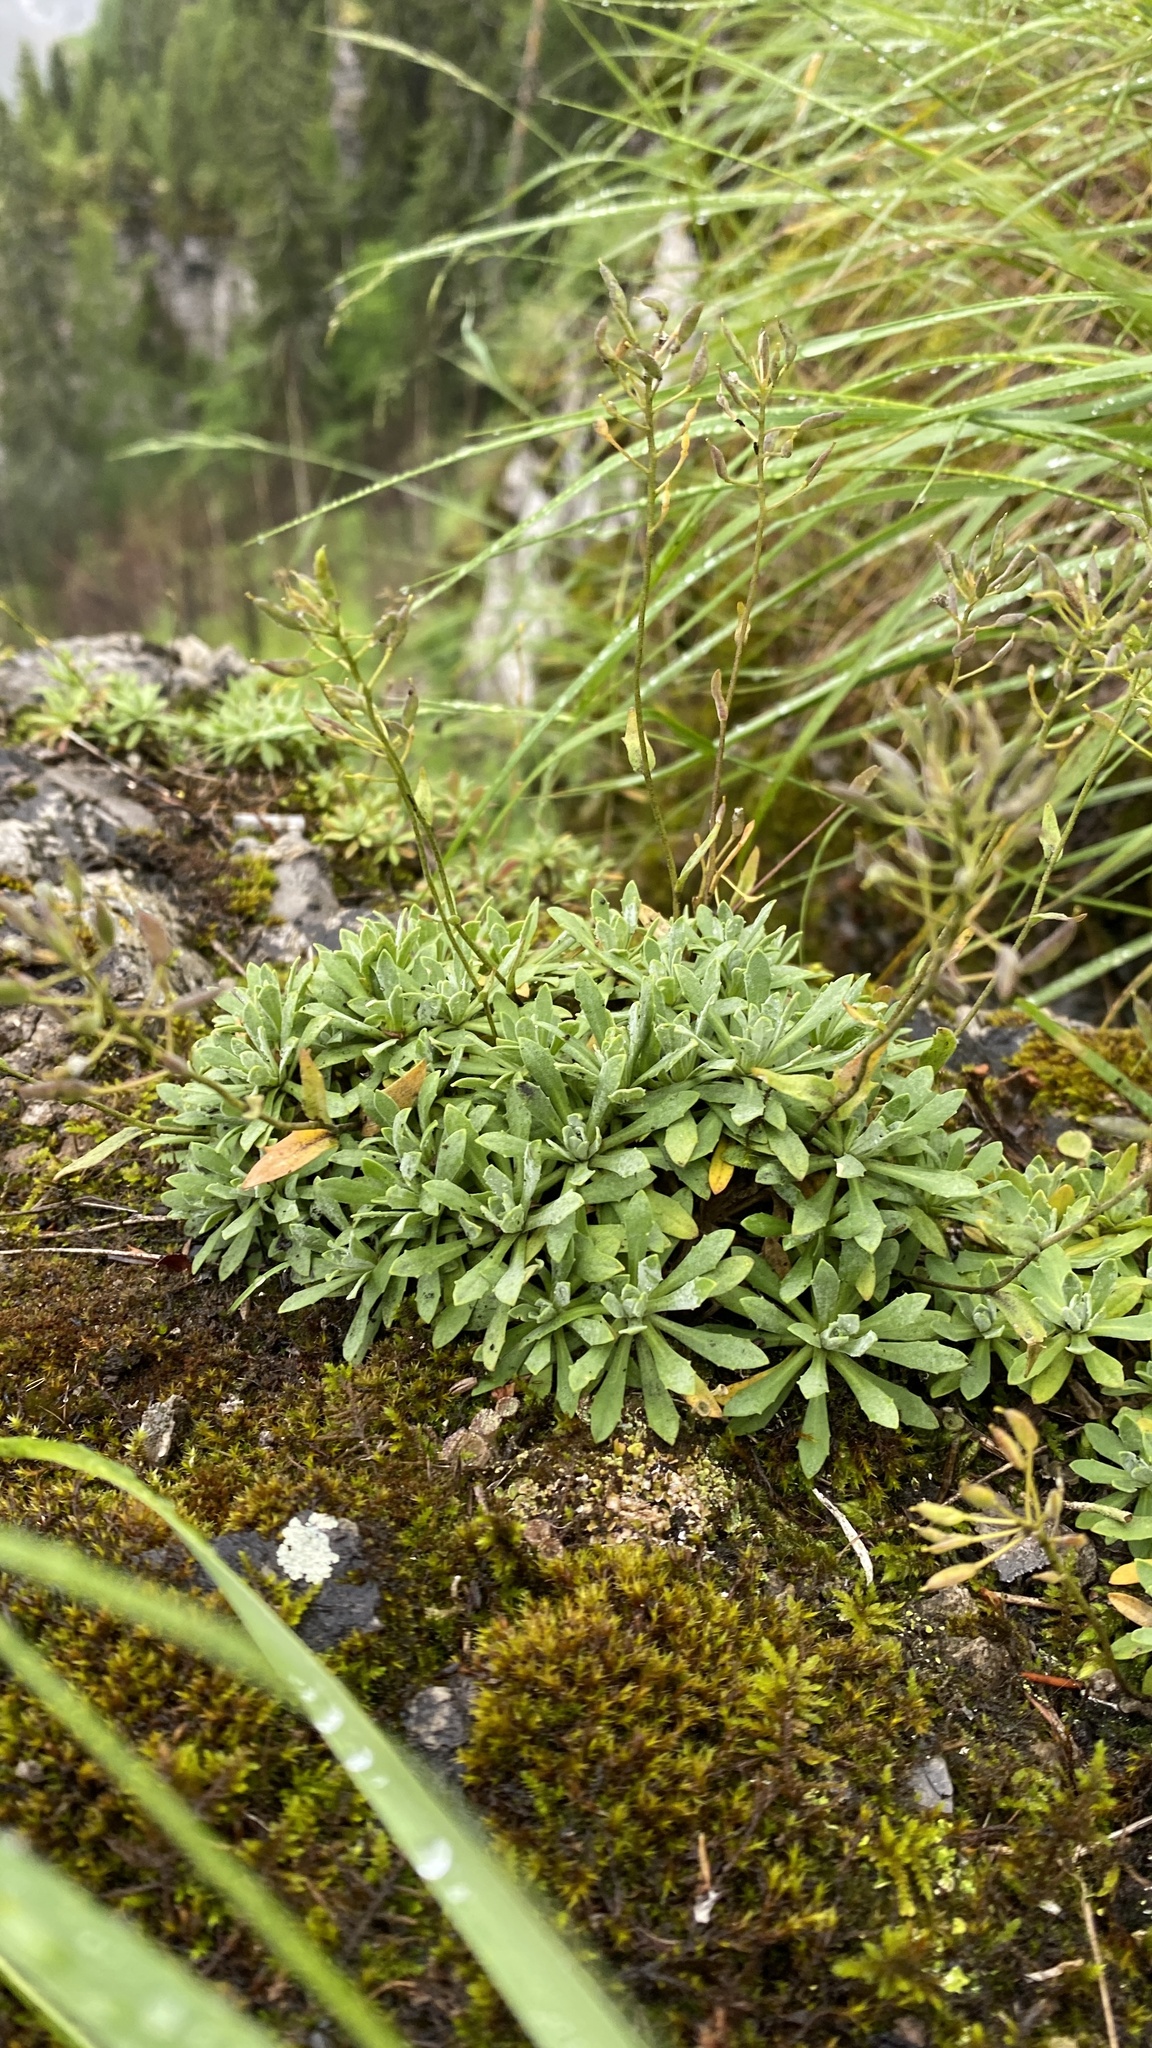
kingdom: Plantae
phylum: Tracheophyta
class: Magnoliopsida
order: Brassicales
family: Brassicaceae
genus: Draba
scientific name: Draba hyperborea
